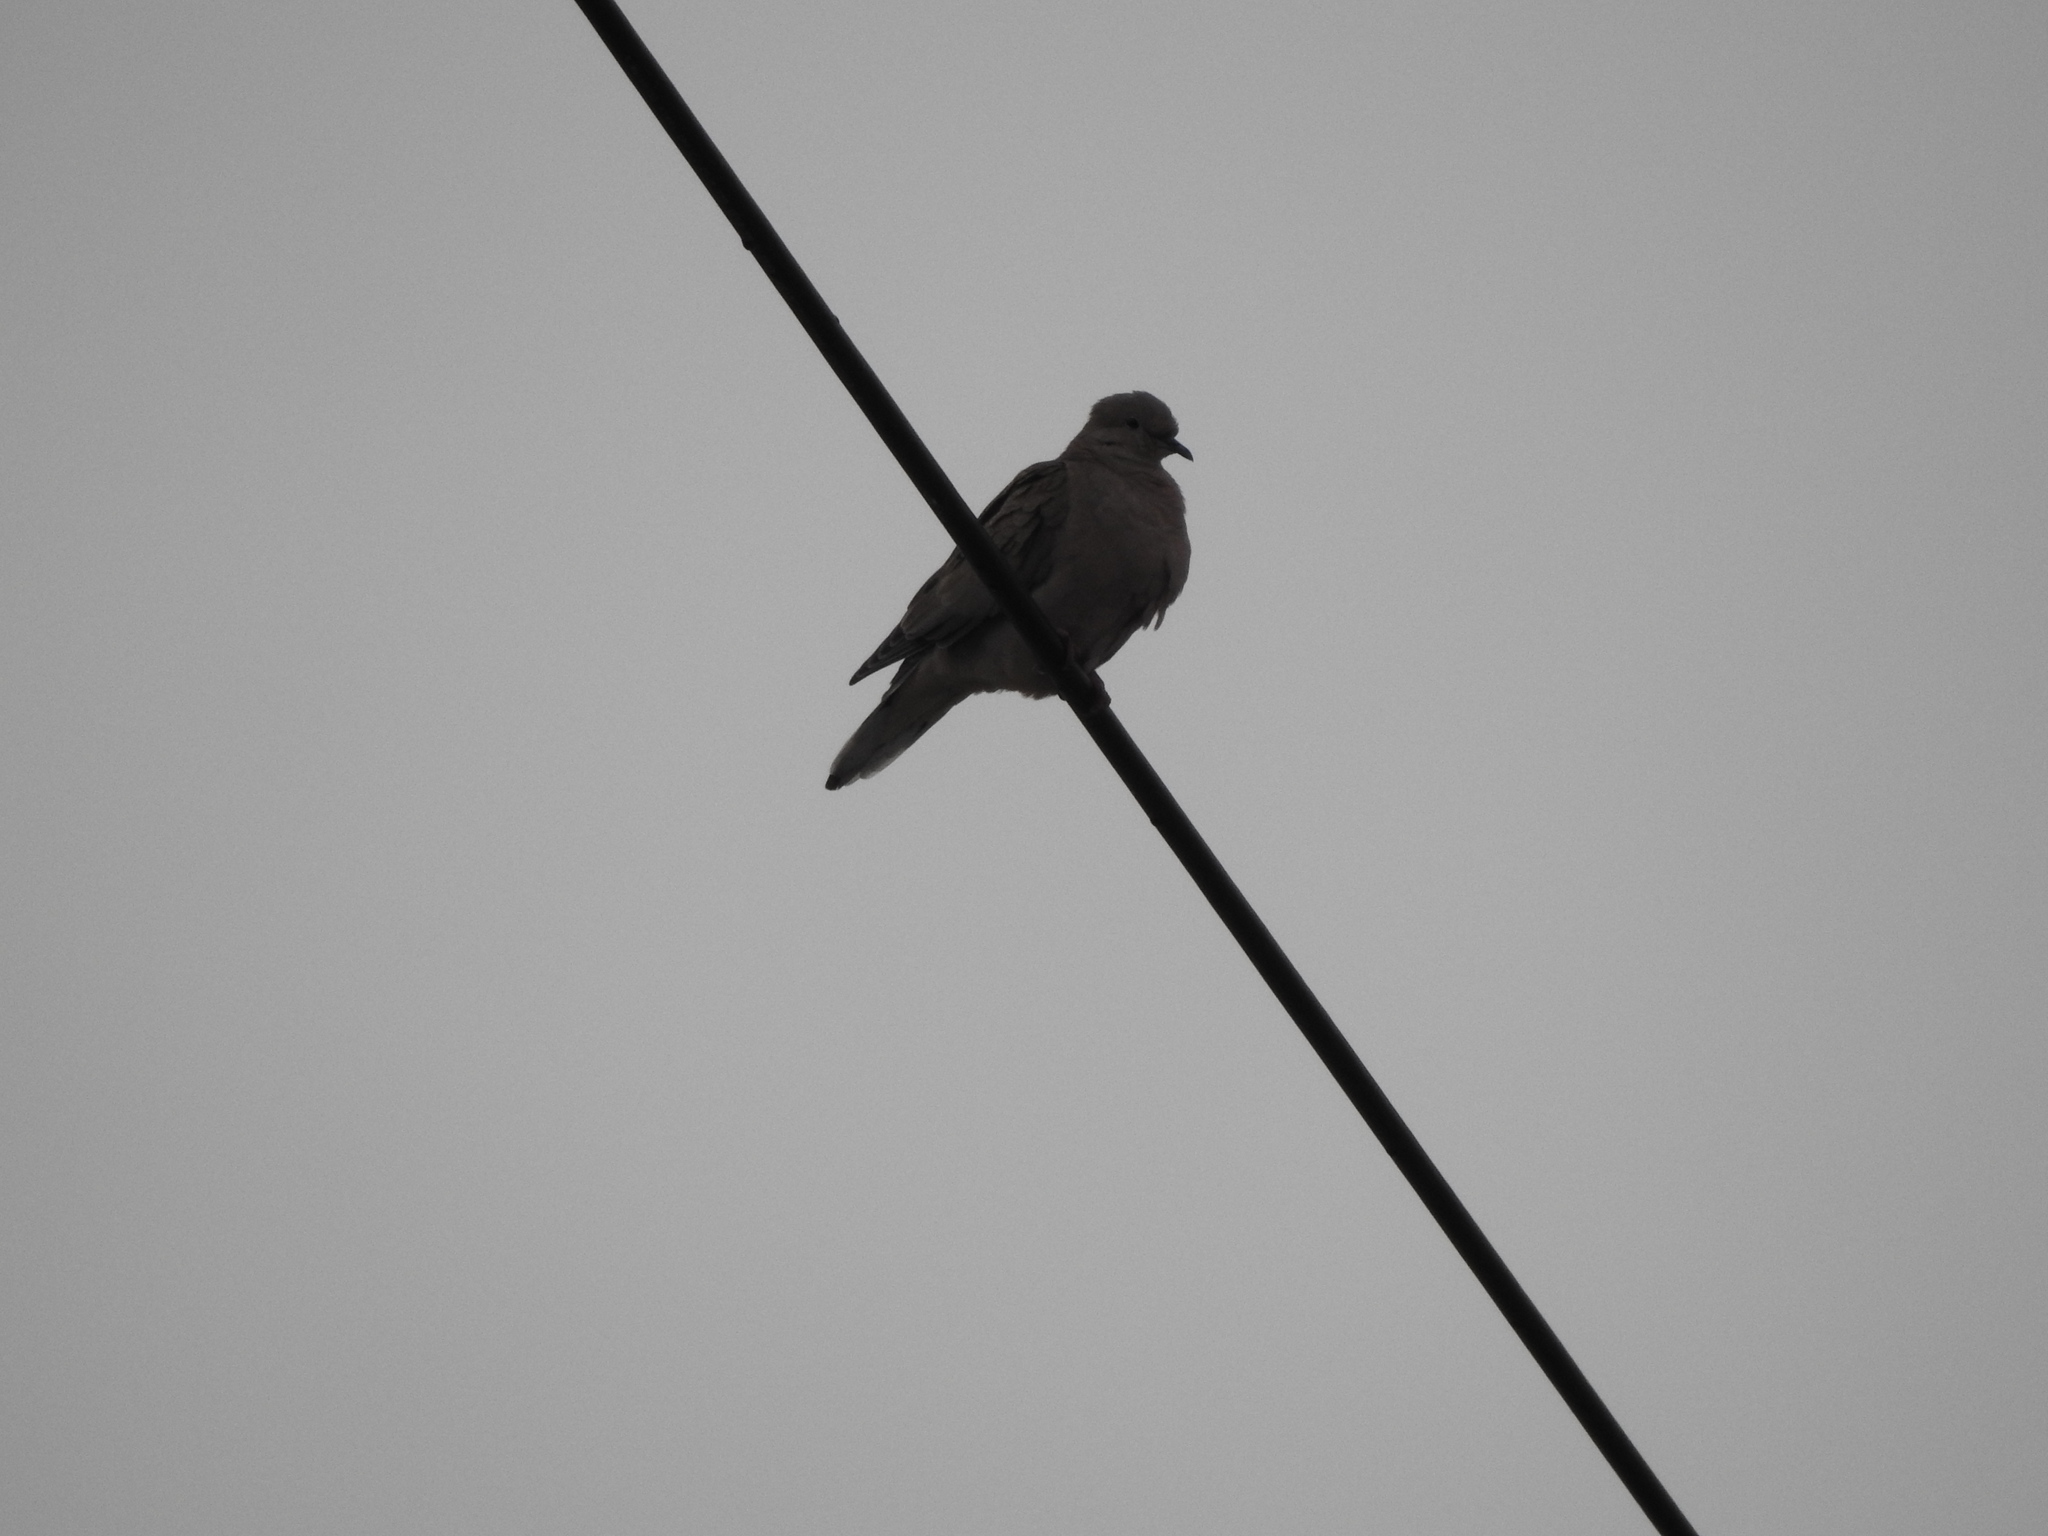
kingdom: Animalia
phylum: Chordata
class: Aves
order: Columbiformes
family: Columbidae
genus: Zenaida
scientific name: Zenaida auriculata
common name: Eared dove
